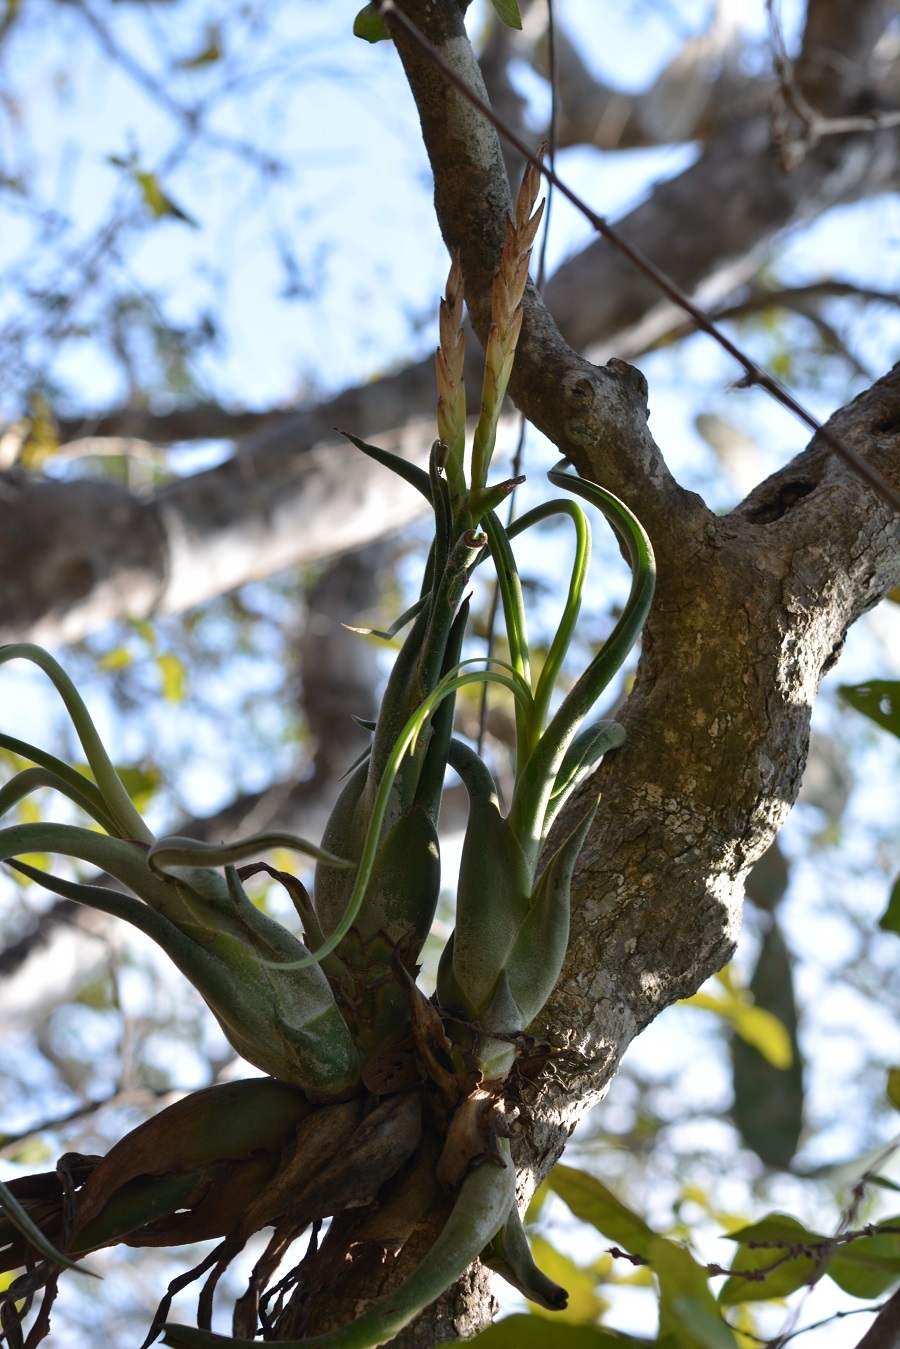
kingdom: Plantae
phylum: Tracheophyta
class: Liliopsida
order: Poales
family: Bromeliaceae
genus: Tillandsia
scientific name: Tillandsia caput-medusae
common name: Octopus plant
